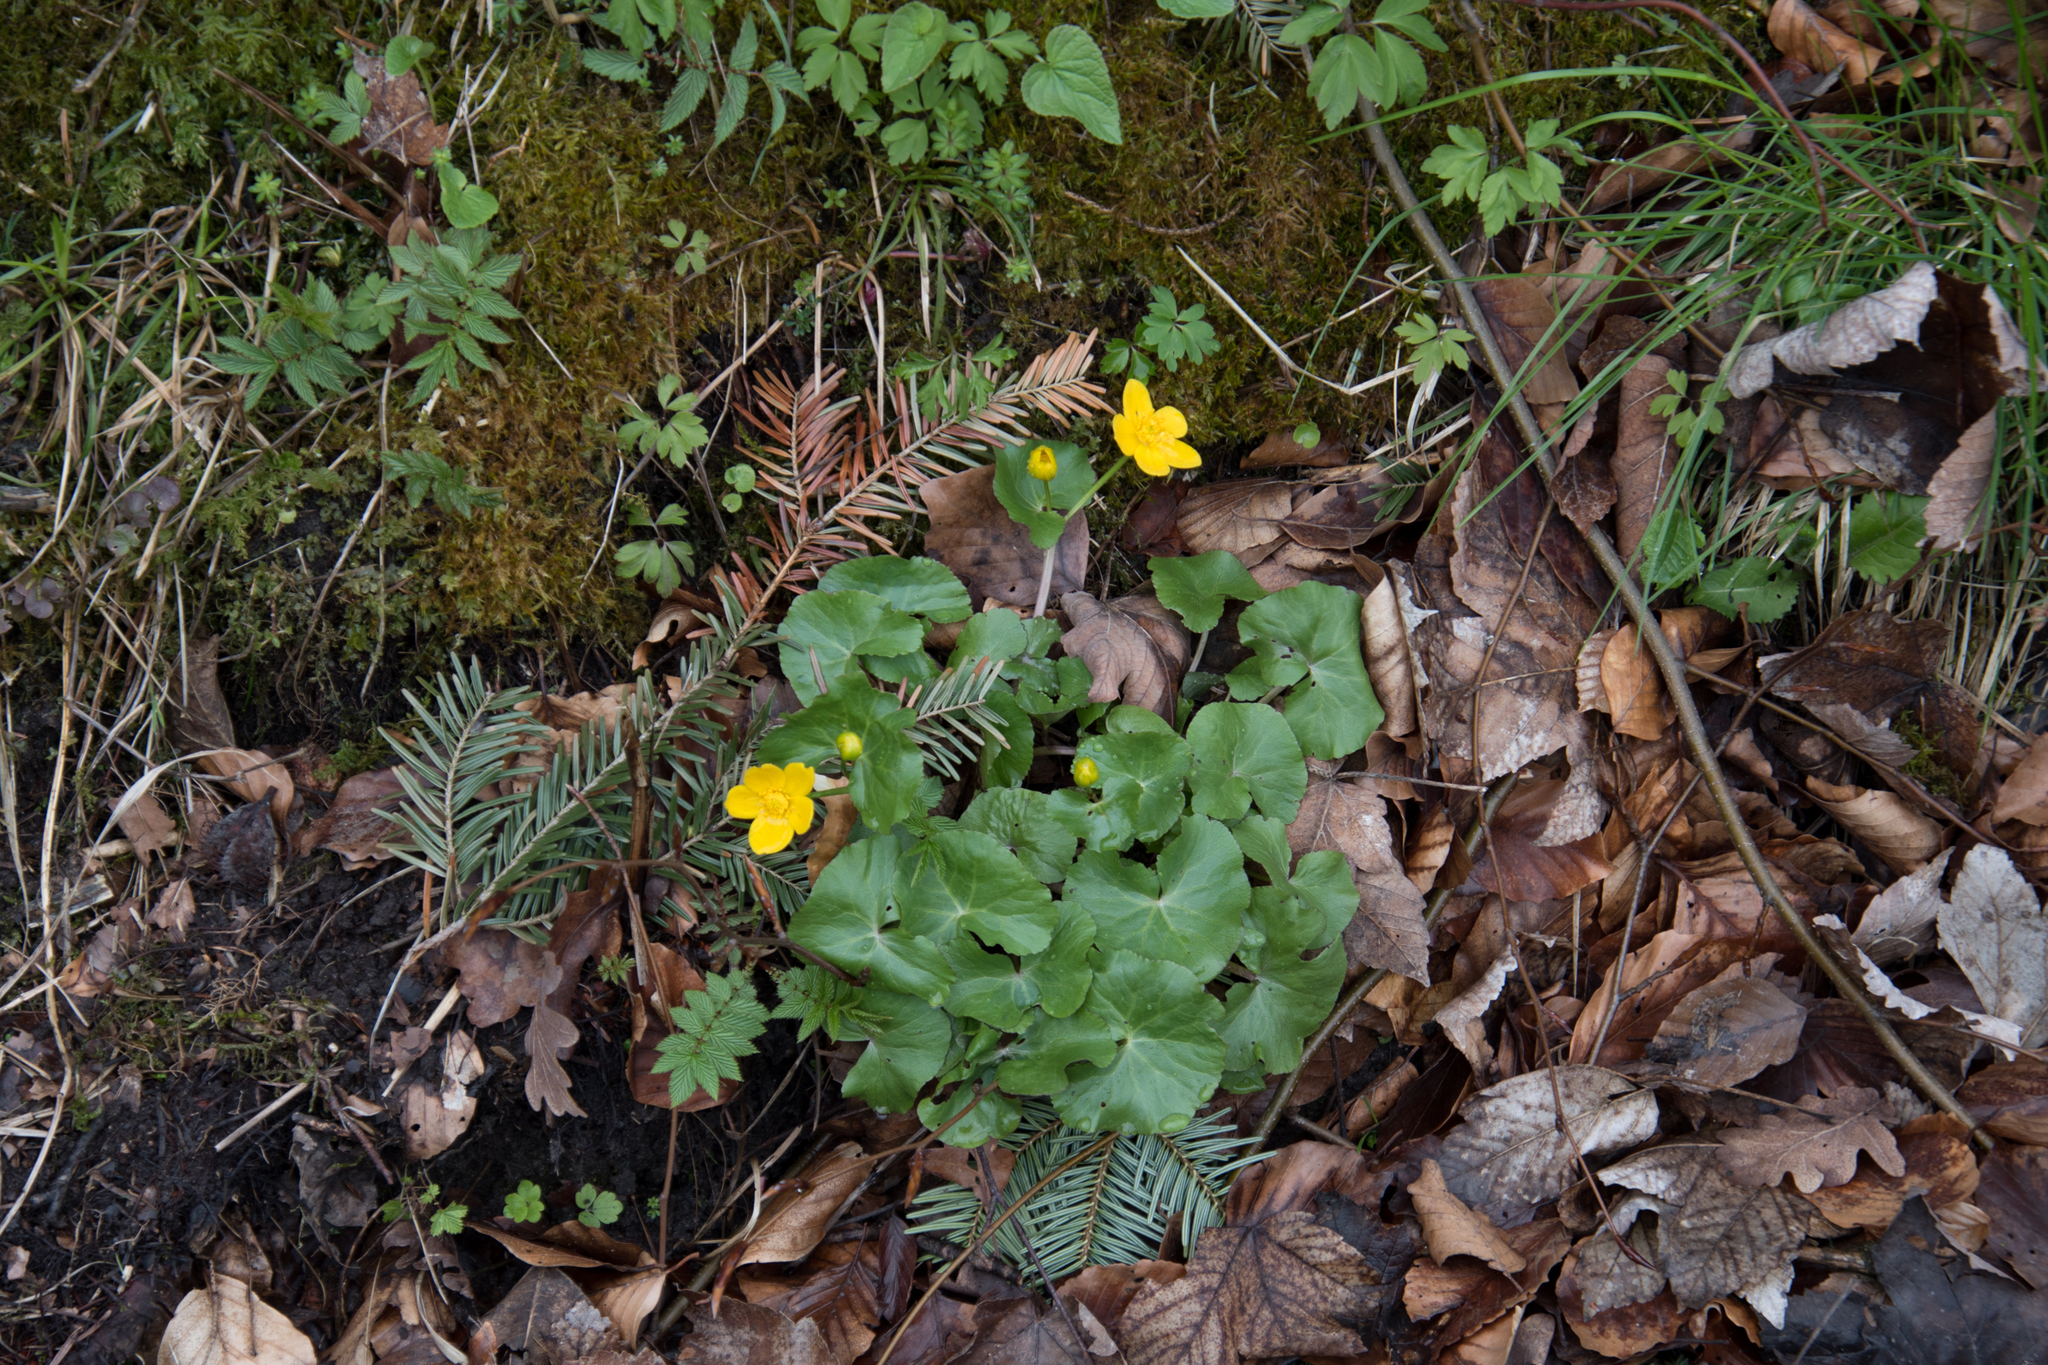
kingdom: Plantae
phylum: Tracheophyta
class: Magnoliopsida
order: Ranunculales
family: Ranunculaceae
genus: Caltha
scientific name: Caltha palustris
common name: Marsh marigold
